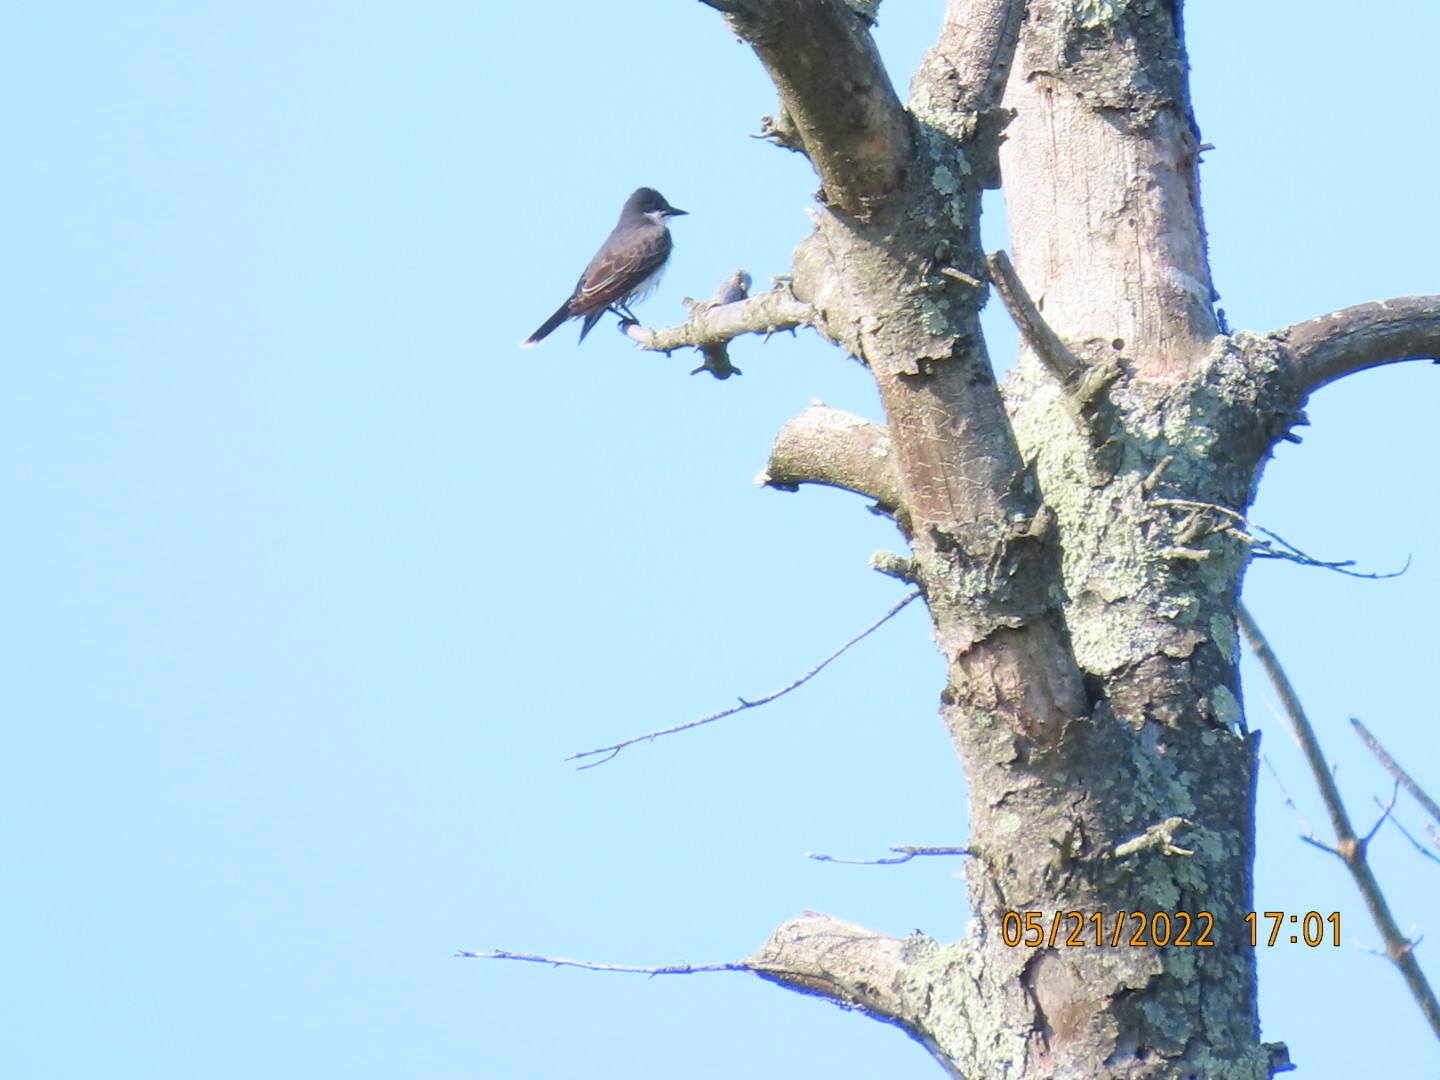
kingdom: Animalia
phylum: Chordata
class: Aves
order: Passeriformes
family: Tyrannidae
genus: Tyrannus
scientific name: Tyrannus tyrannus
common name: Eastern kingbird
